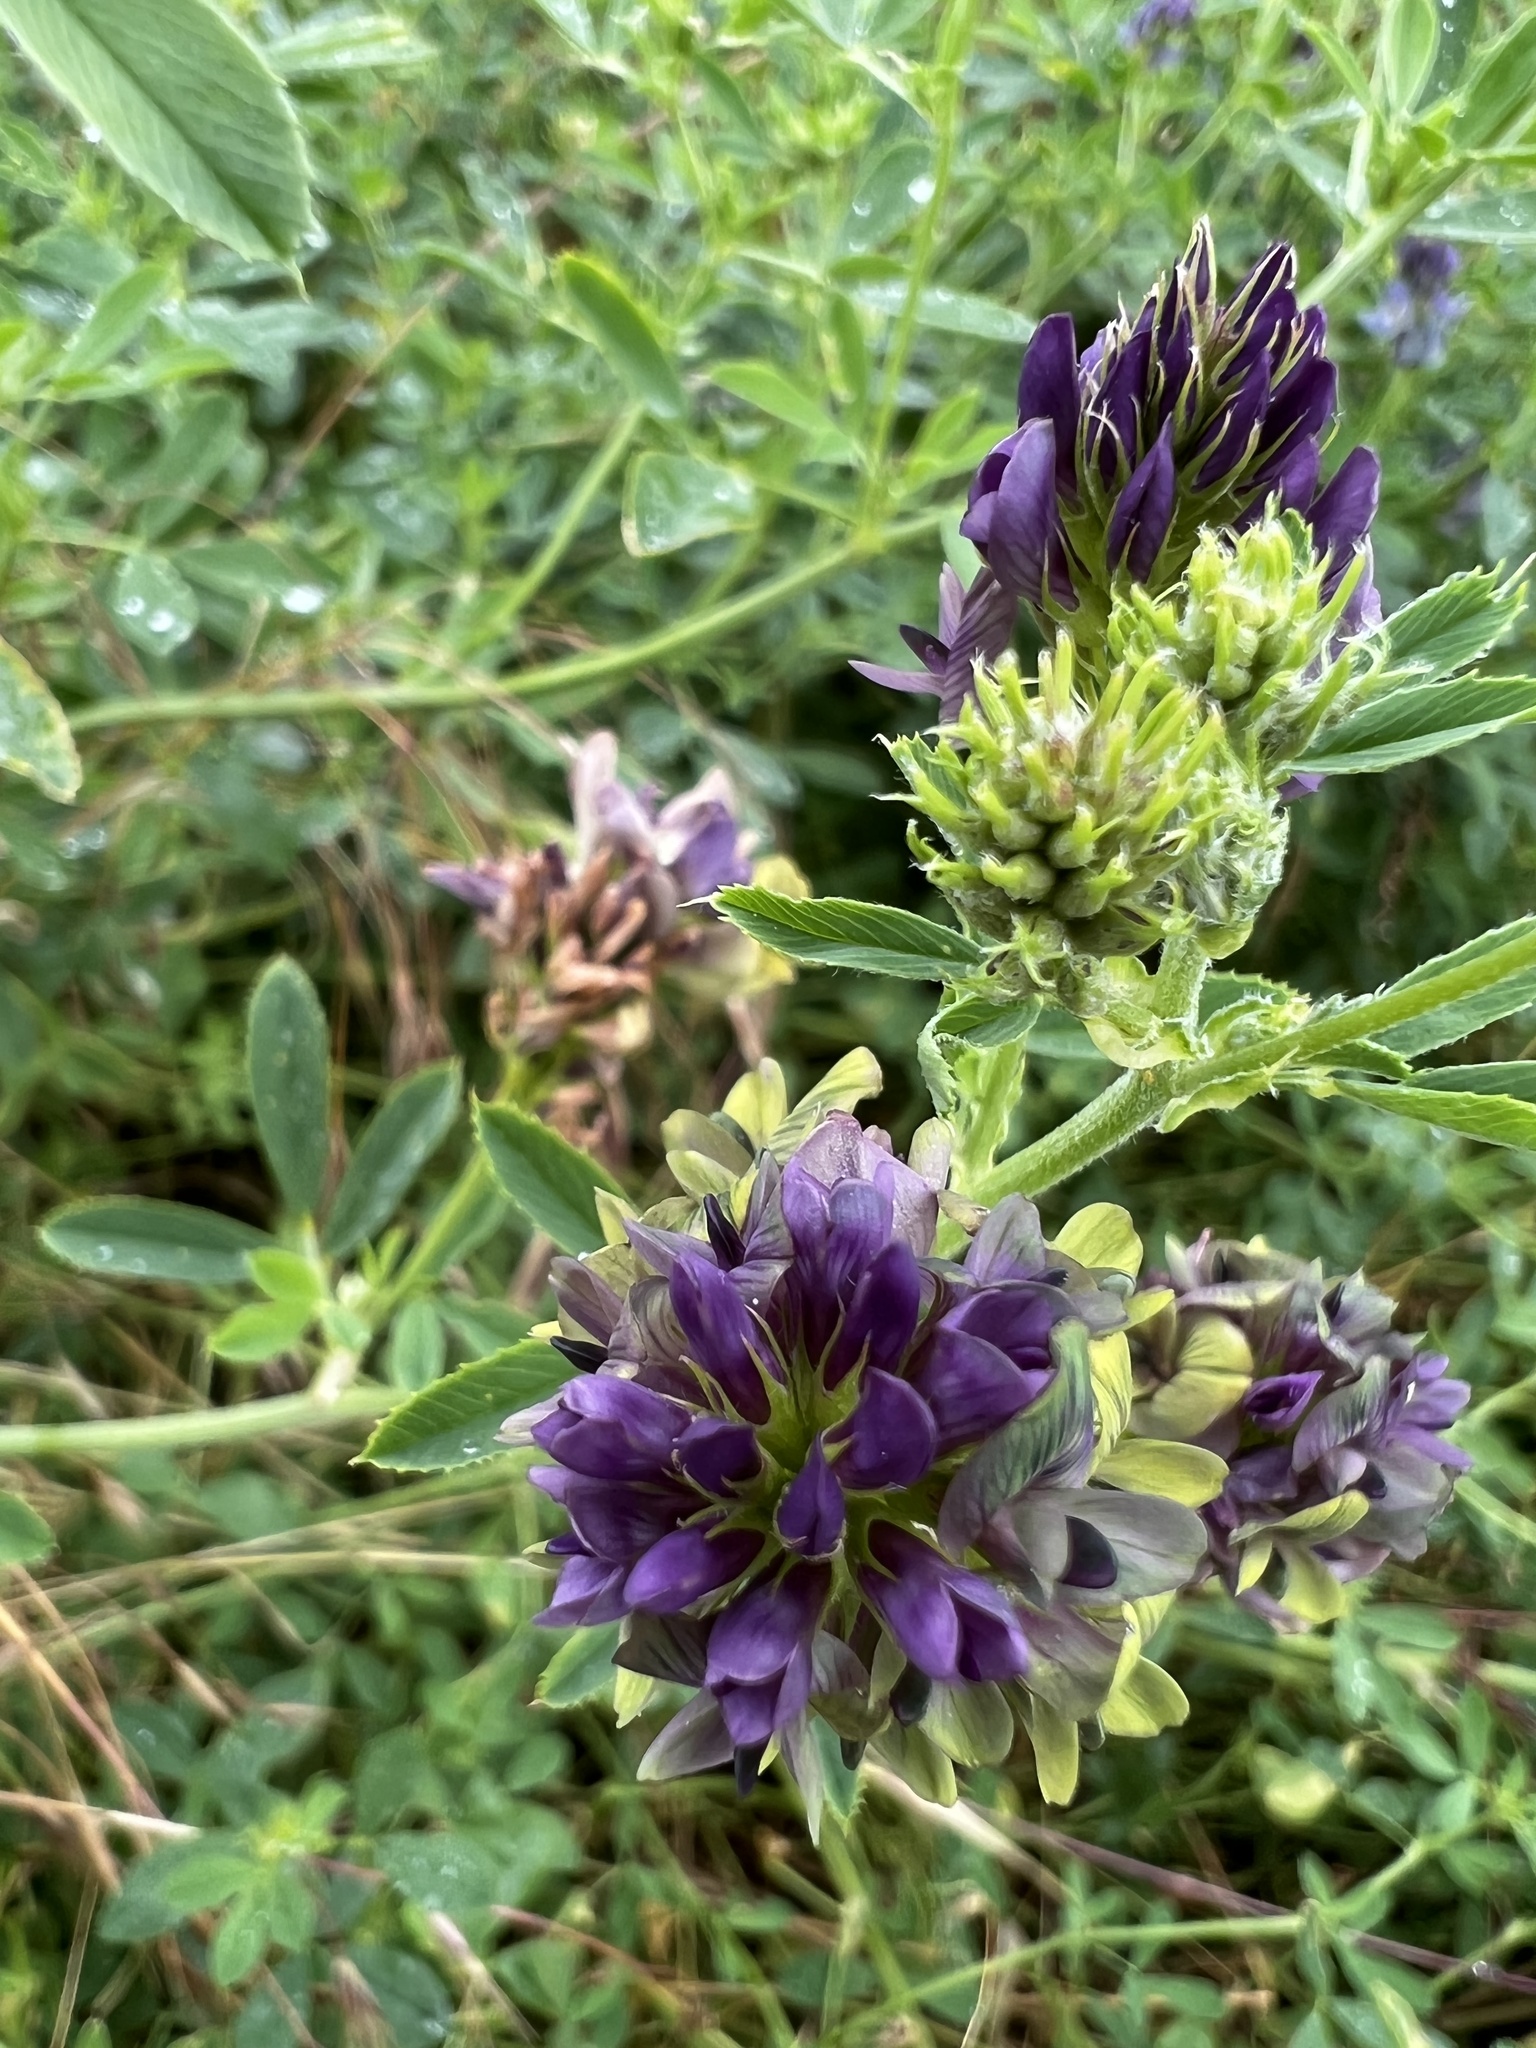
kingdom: Plantae
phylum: Tracheophyta
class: Magnoliopsida
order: Fabales
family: Fabaceae
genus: Medicago
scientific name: Medicago varia
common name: Sand lucerne
